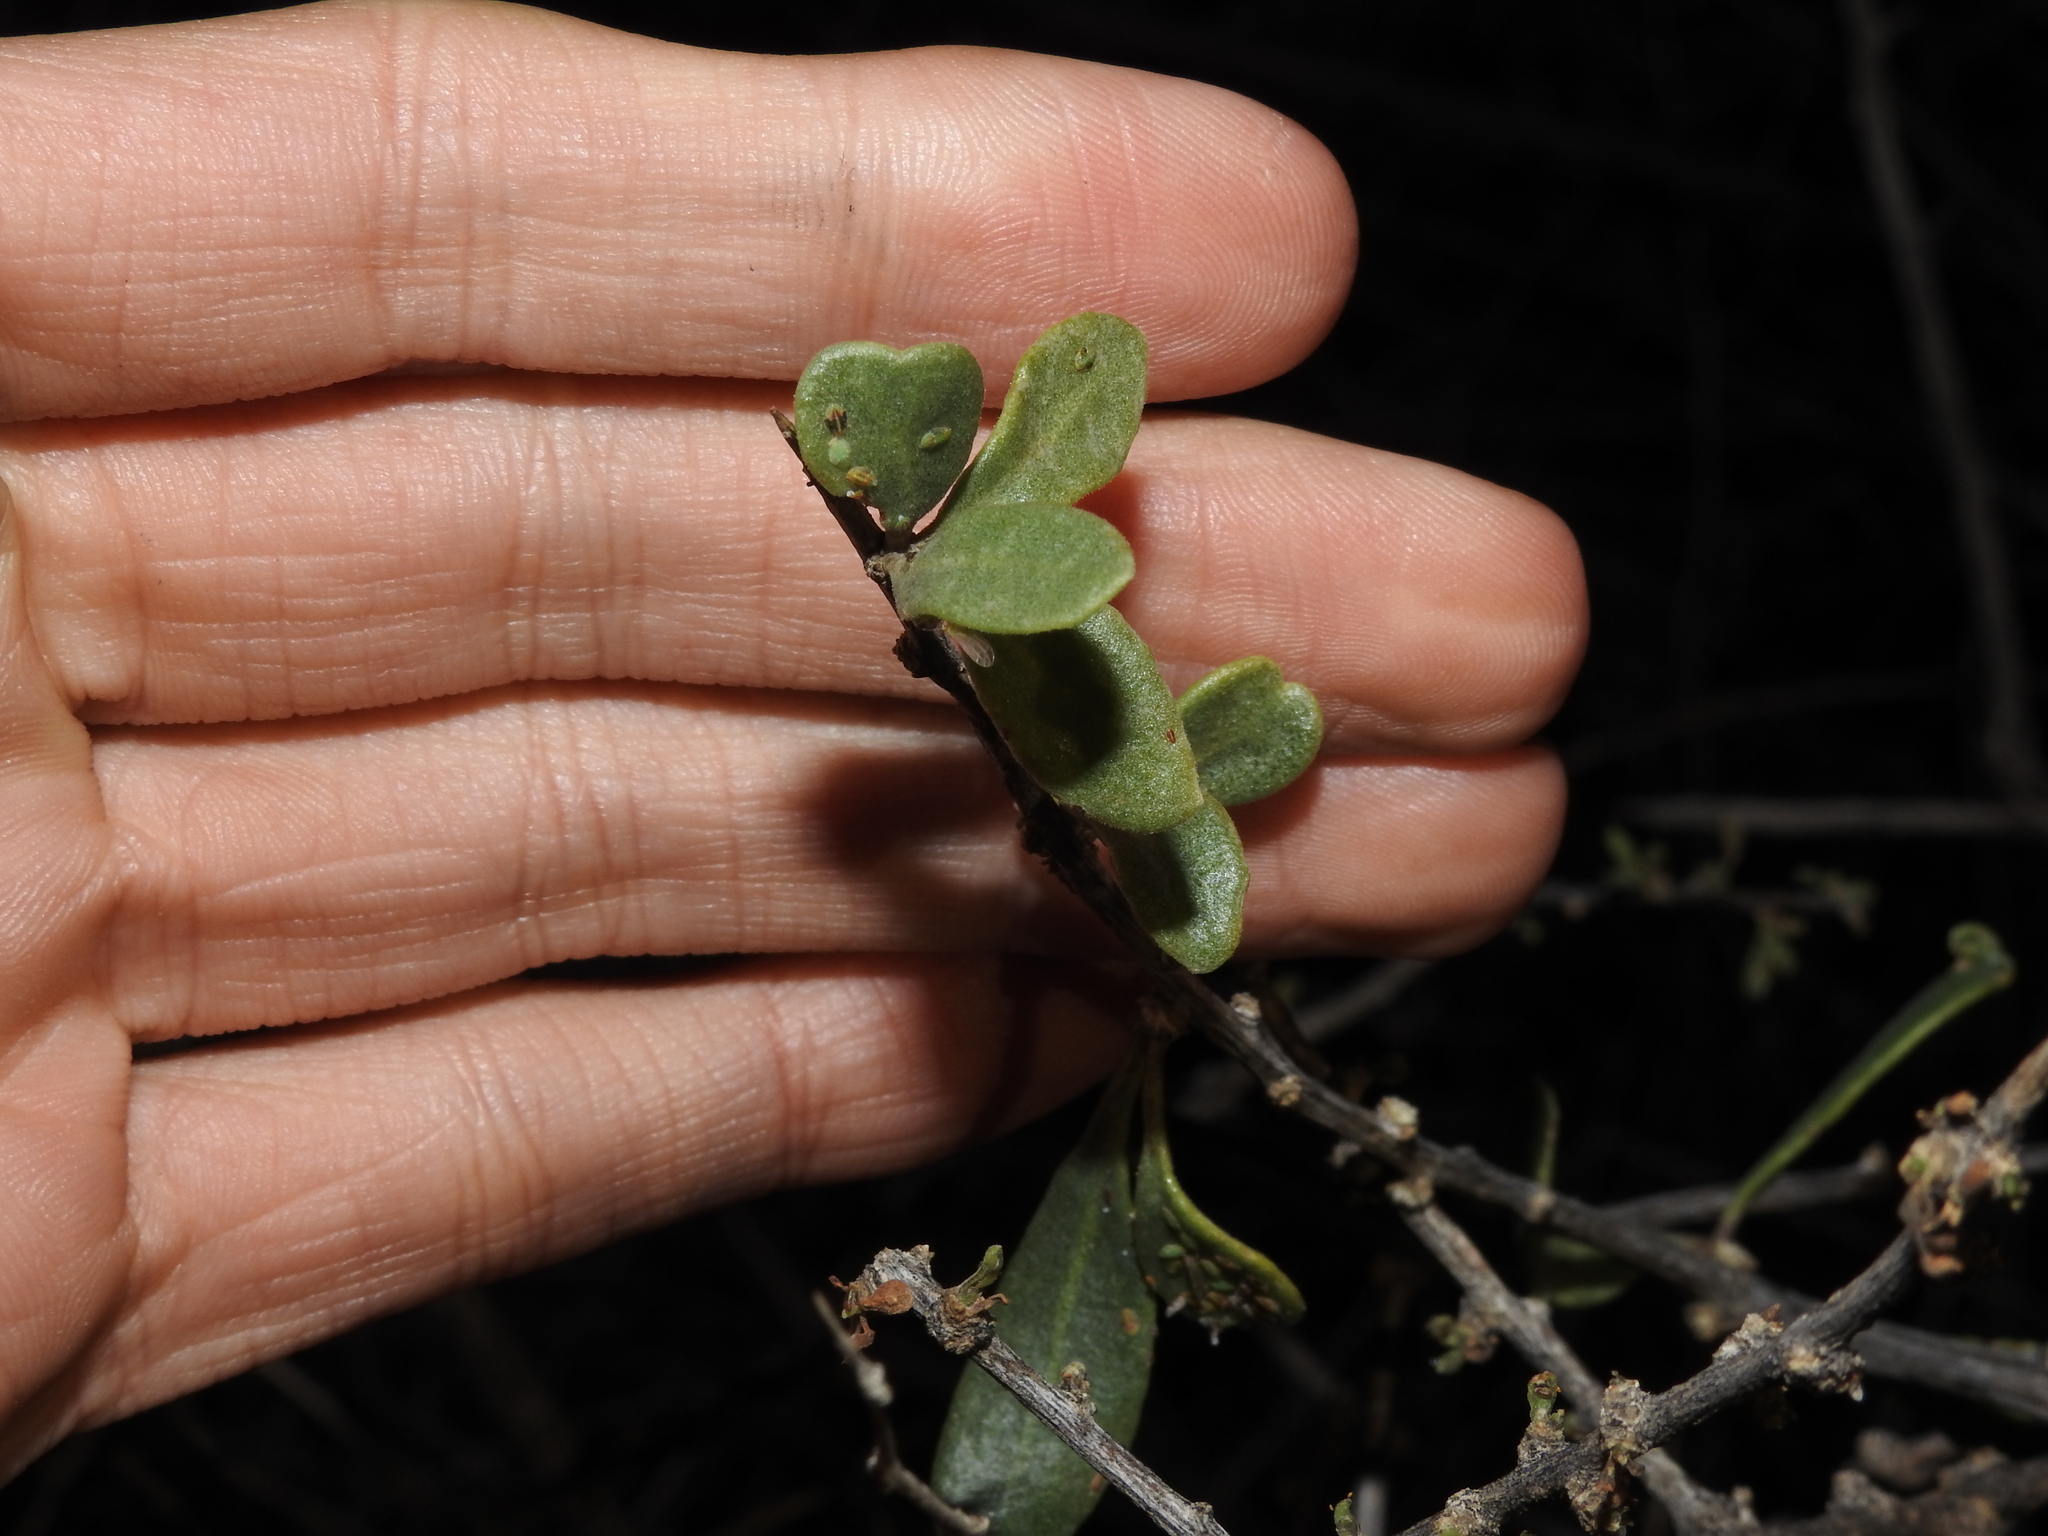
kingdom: Plantae
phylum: Tracheophyta
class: Magnoliopsida
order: Solanales
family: Solanaceae
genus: Lycium
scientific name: Lycium exsertum
